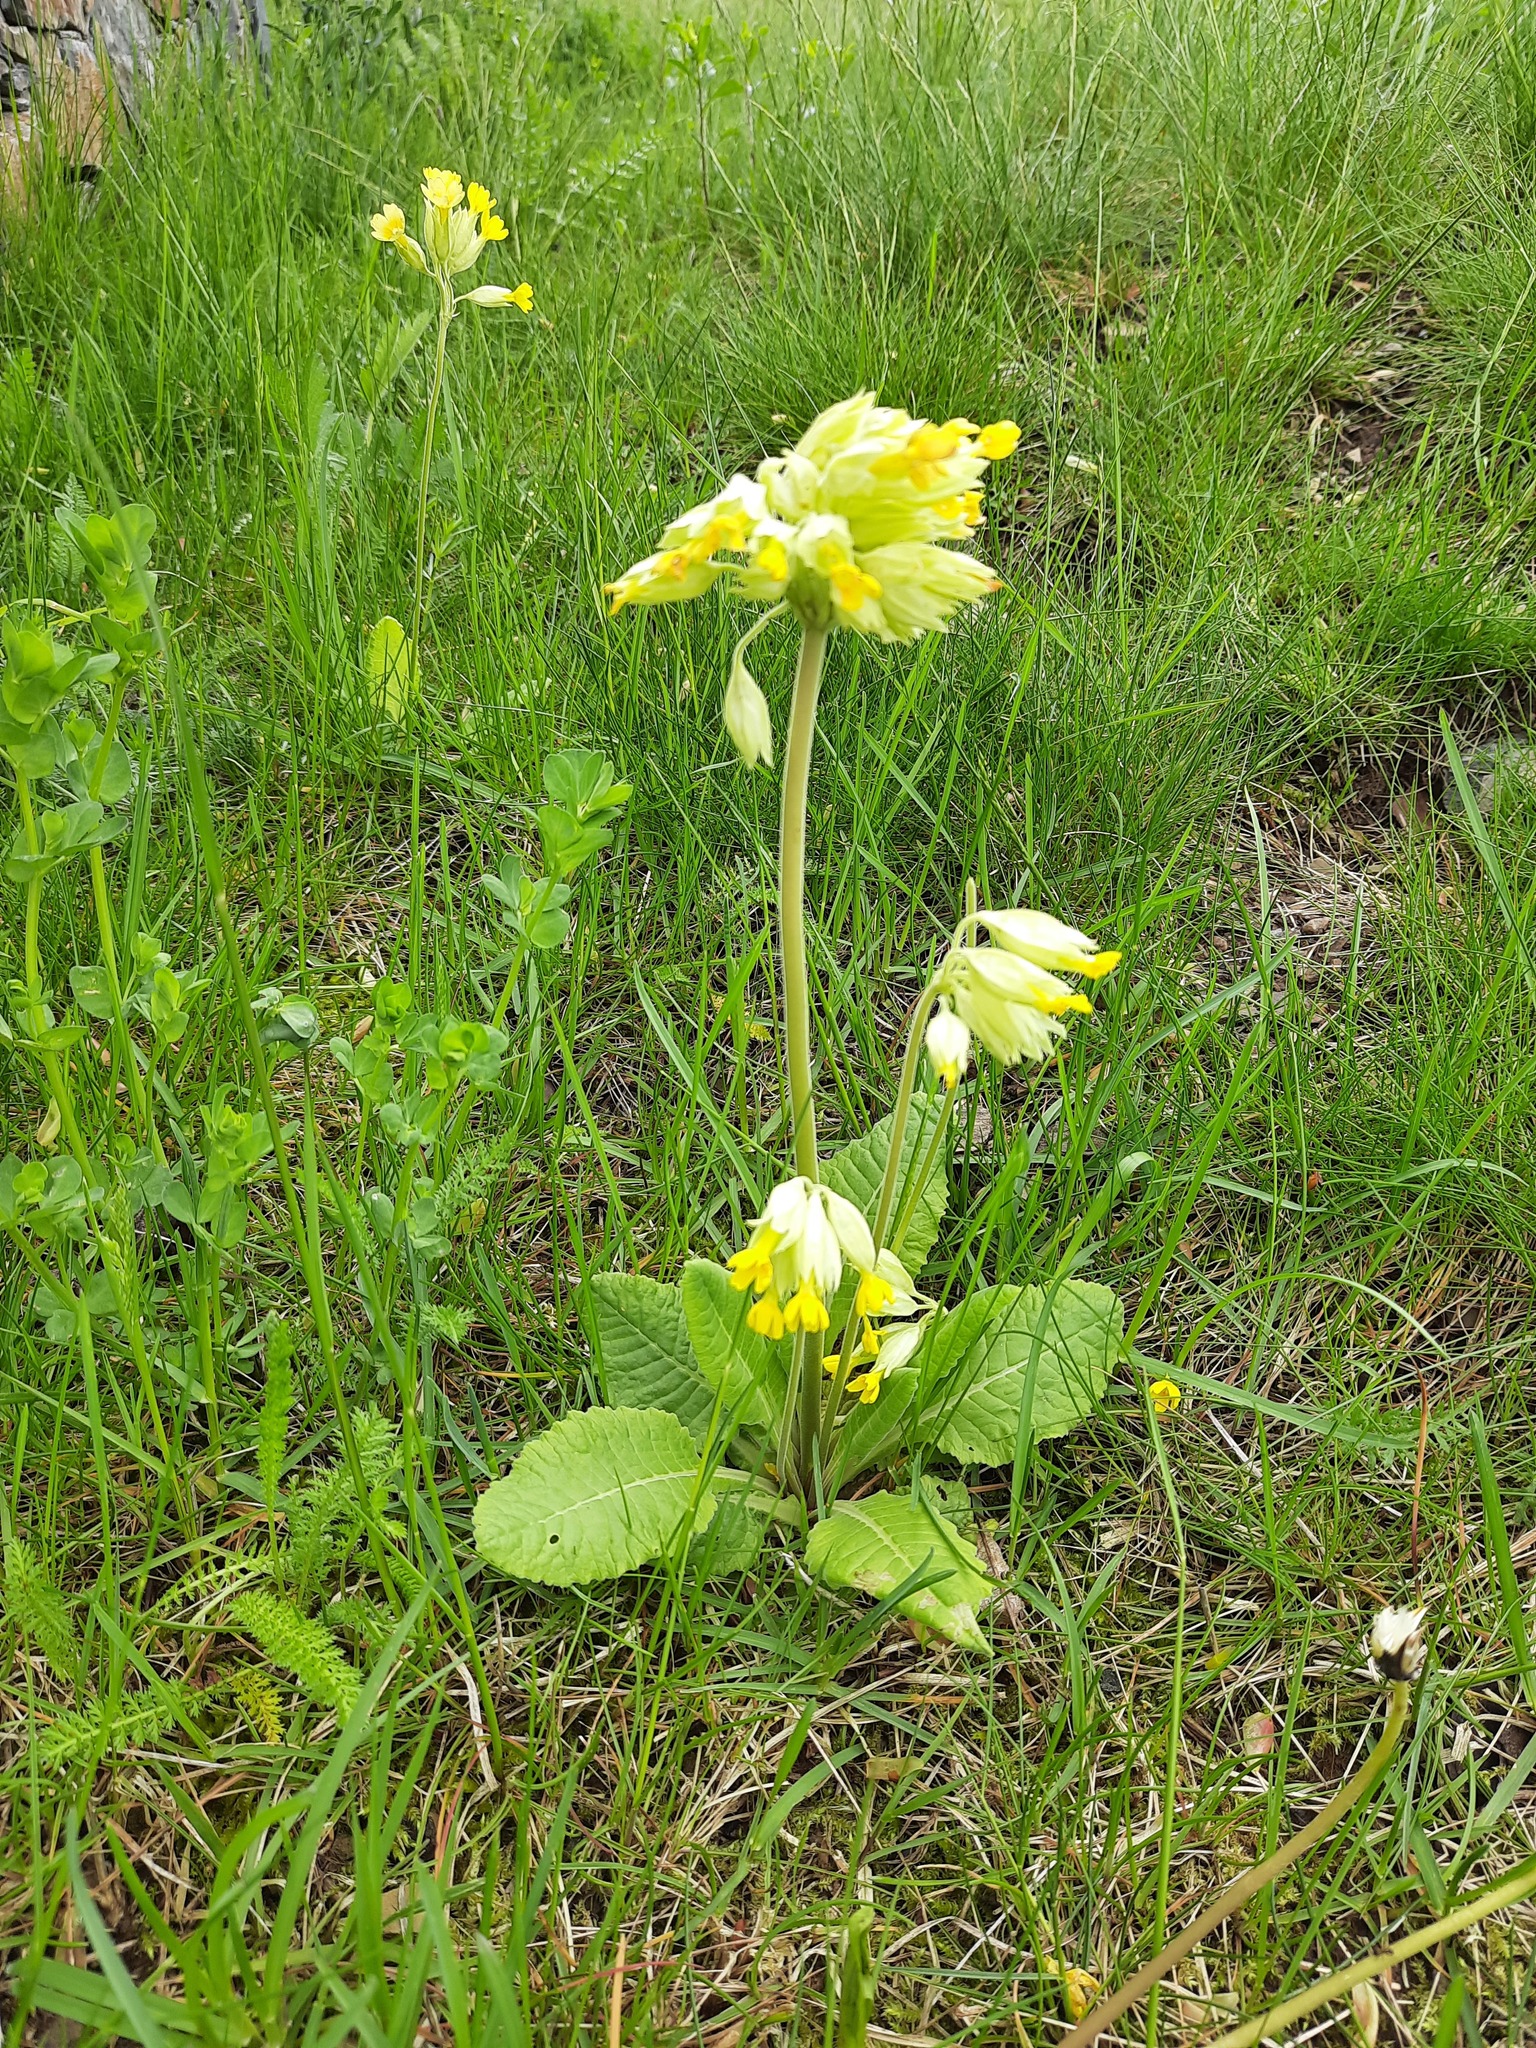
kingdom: Plantae
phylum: Tracheophyta
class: Magnoliopsida
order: Ericales
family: Primulaceae
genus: Primula
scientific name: Primula veris
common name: Cowslip
